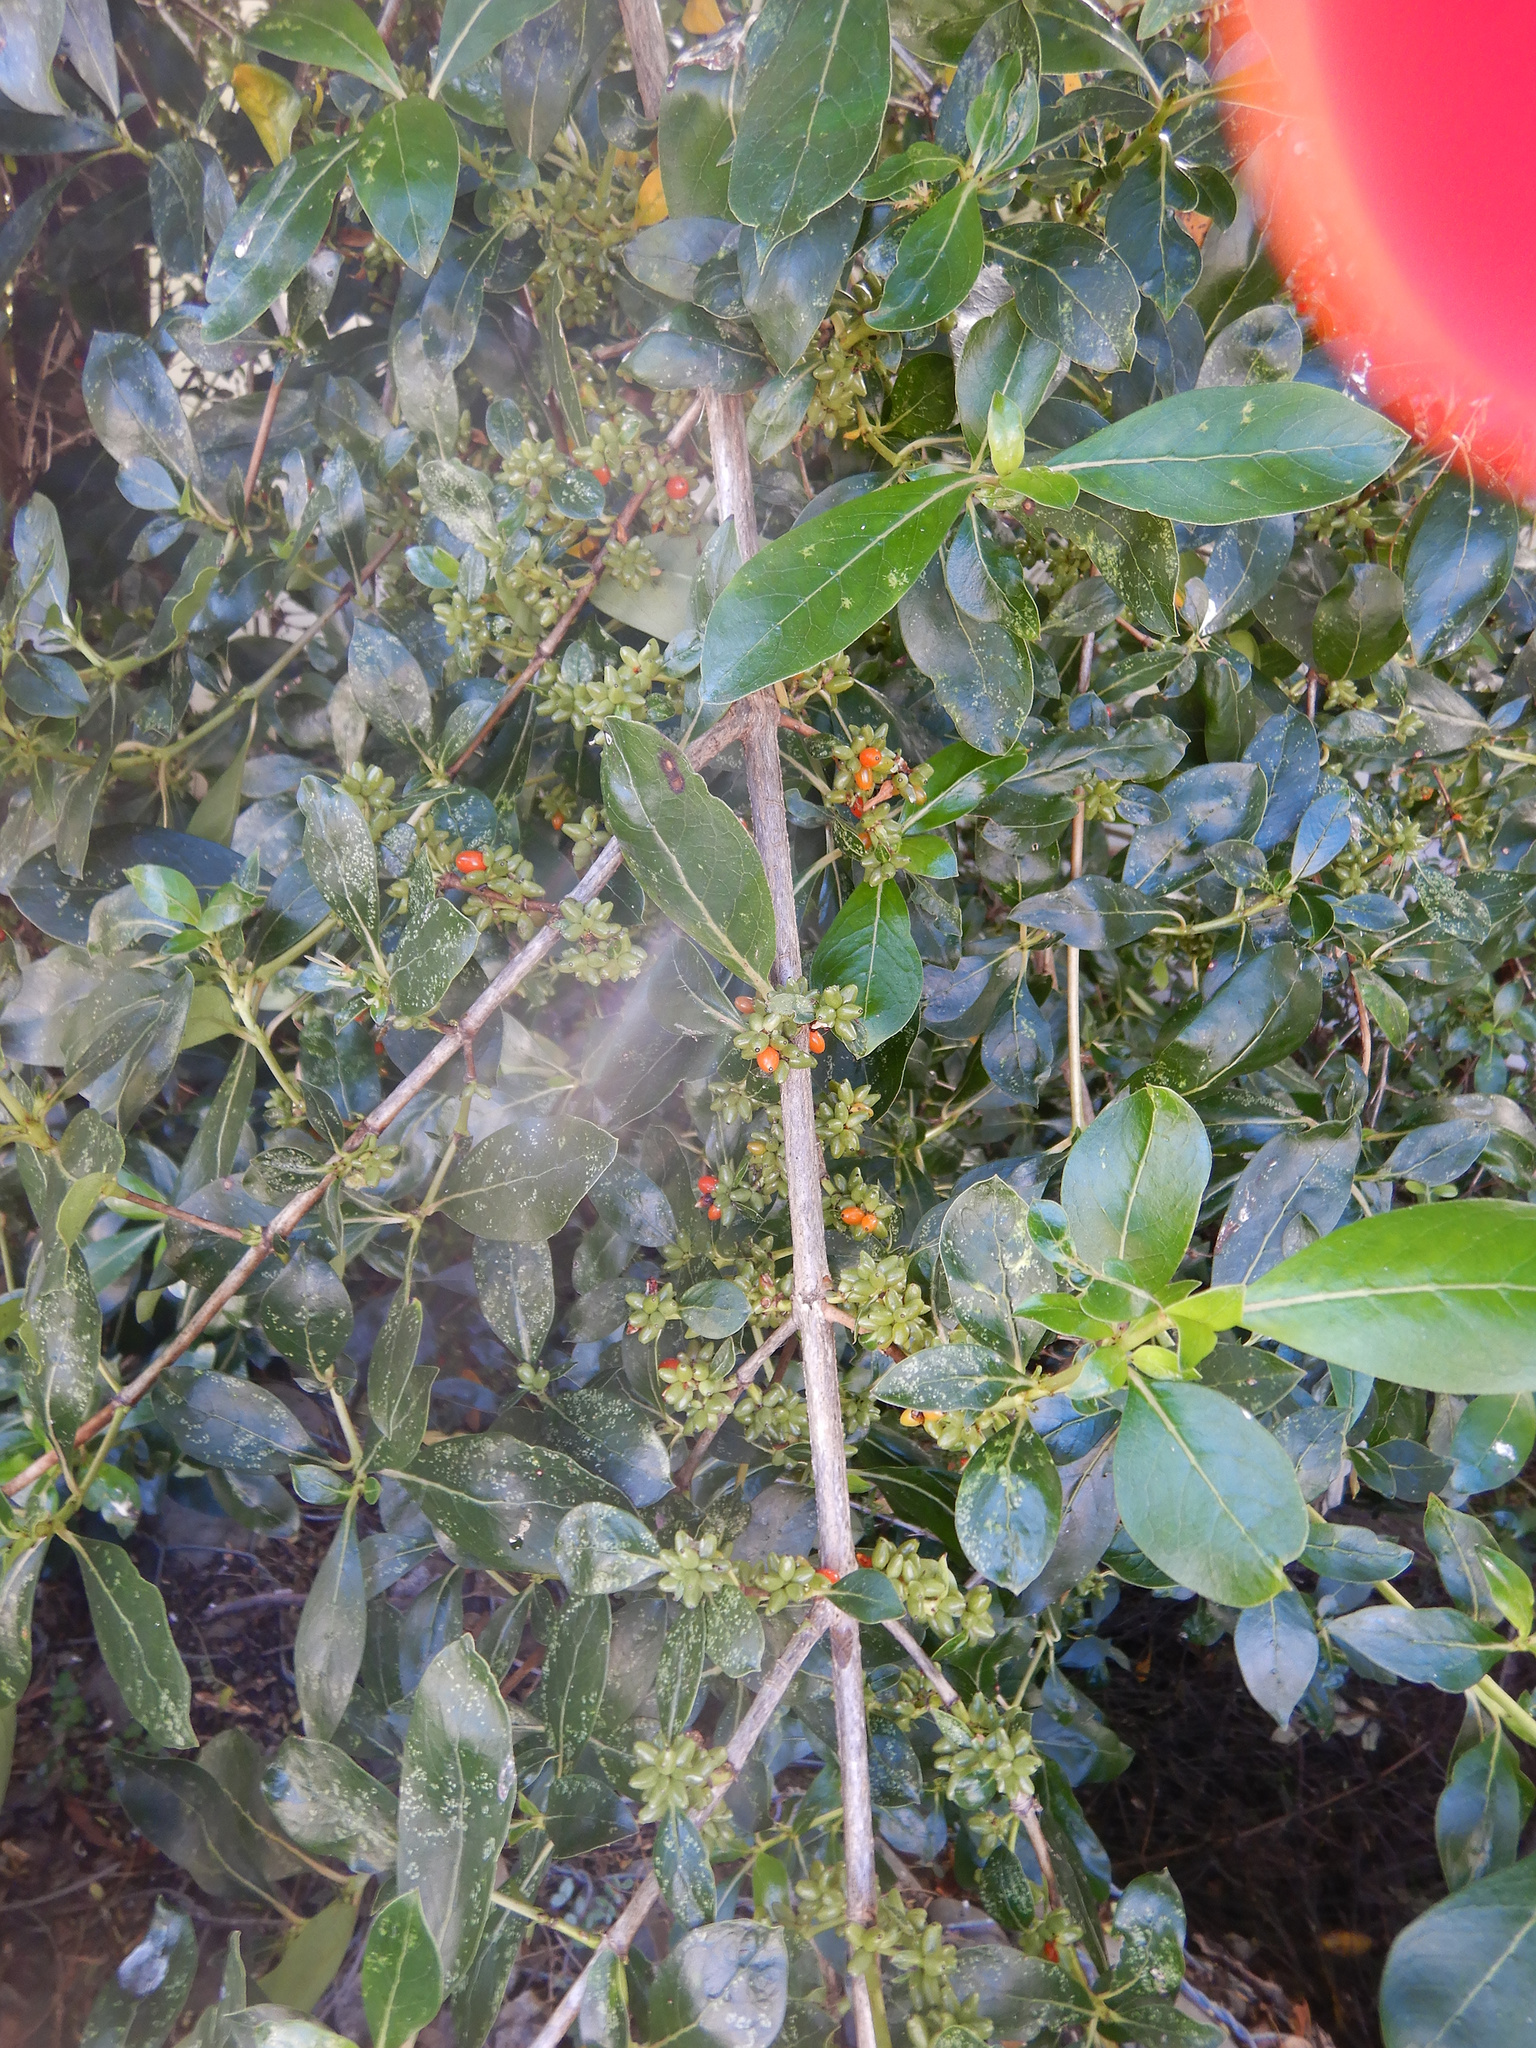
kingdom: Plantae
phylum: Tracheophyta
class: Magnoliopsida
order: Gentianales
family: Rubiaceae
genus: Coprosma
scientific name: Coprosma robusta
